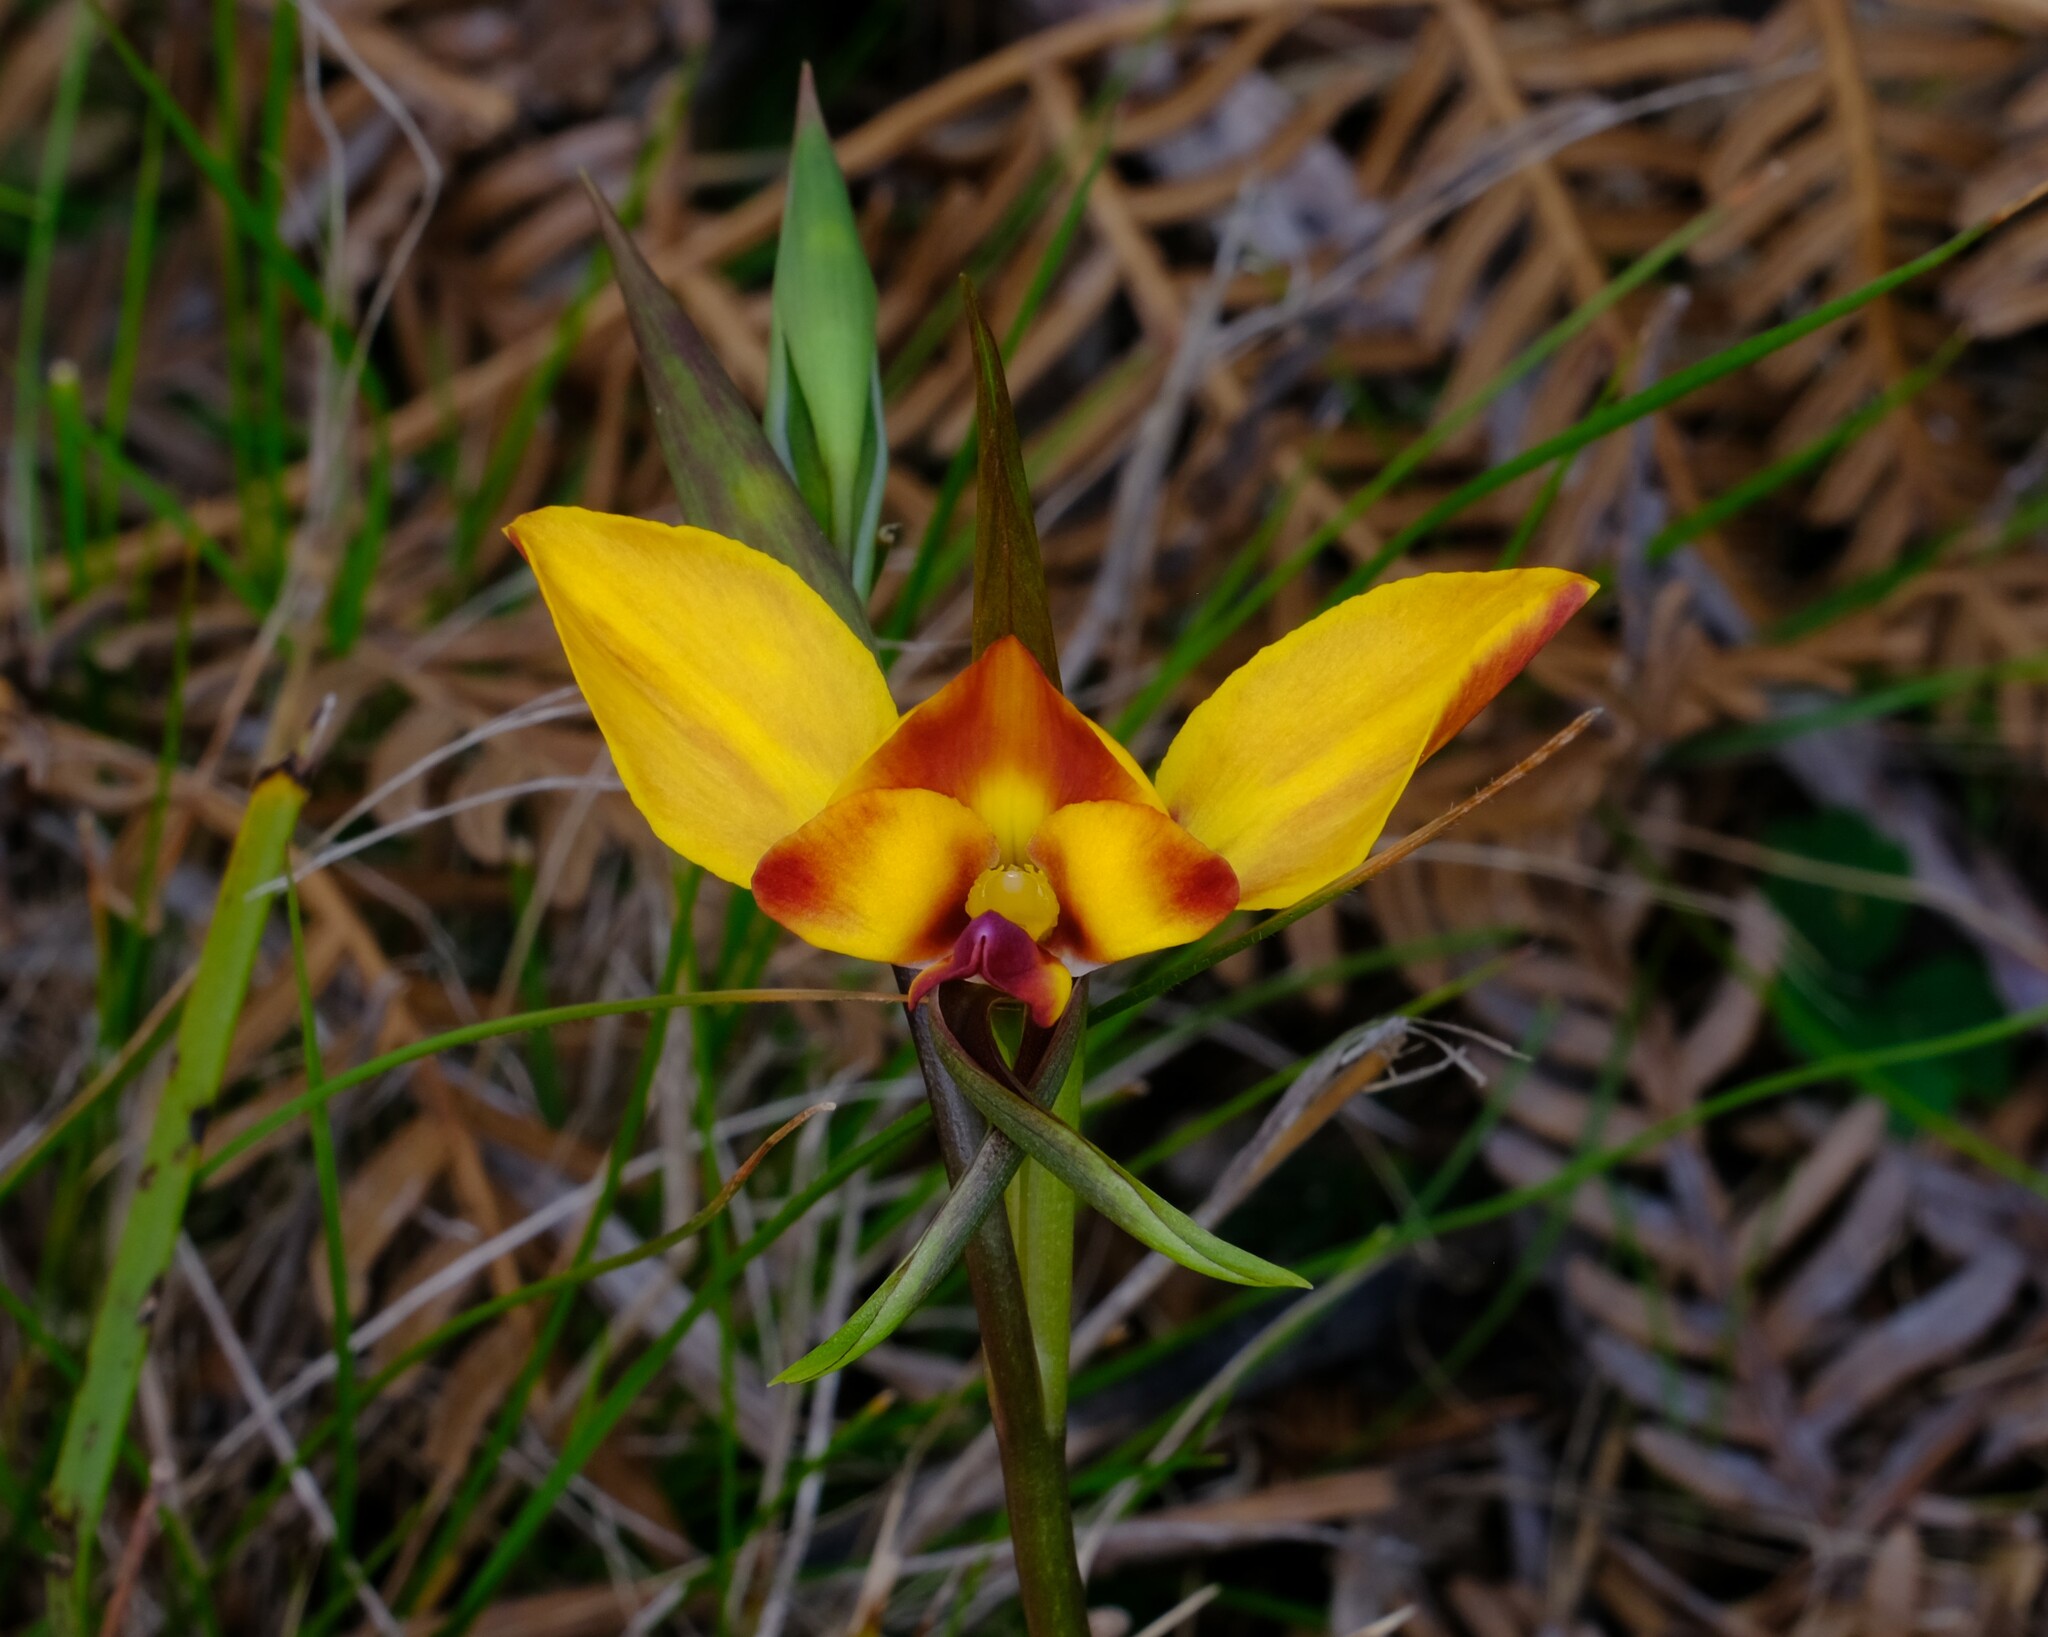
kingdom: Plantae
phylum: Tracheophyta
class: Liliopsida
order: Asparagales
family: Orchidaceae
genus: Diuris
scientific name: Diuris orientis
